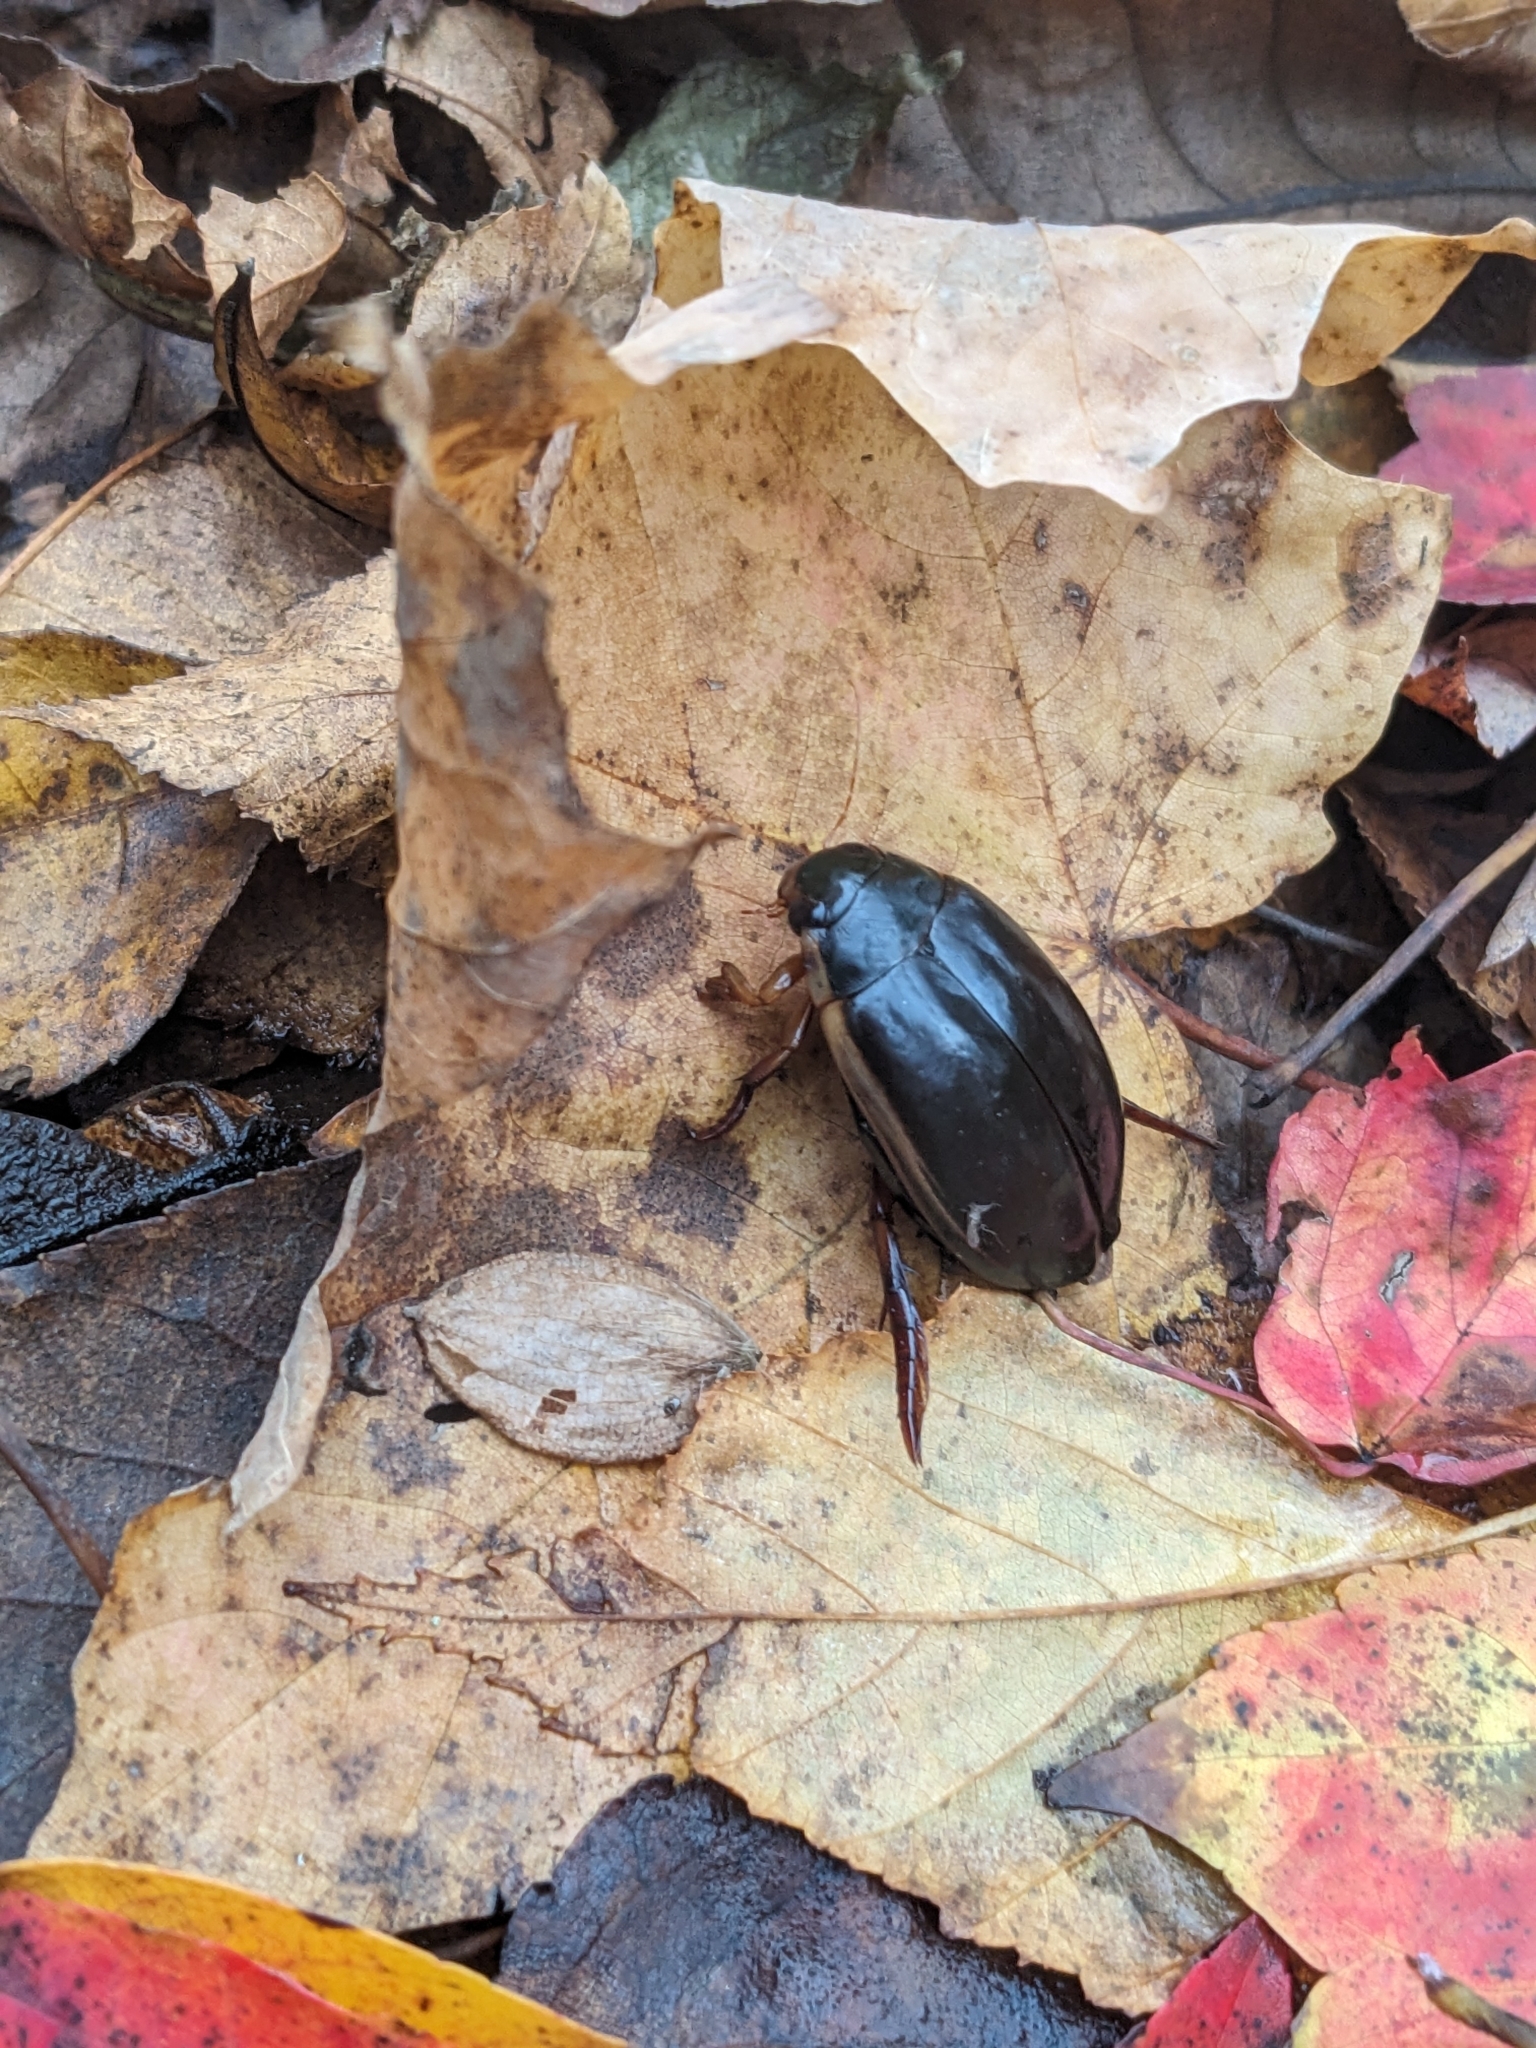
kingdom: Animalia
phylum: Arthropoda
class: Insecta
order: Coleoptera
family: Dytiscidae
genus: Cybister
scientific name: Cybister fimbriolatus
